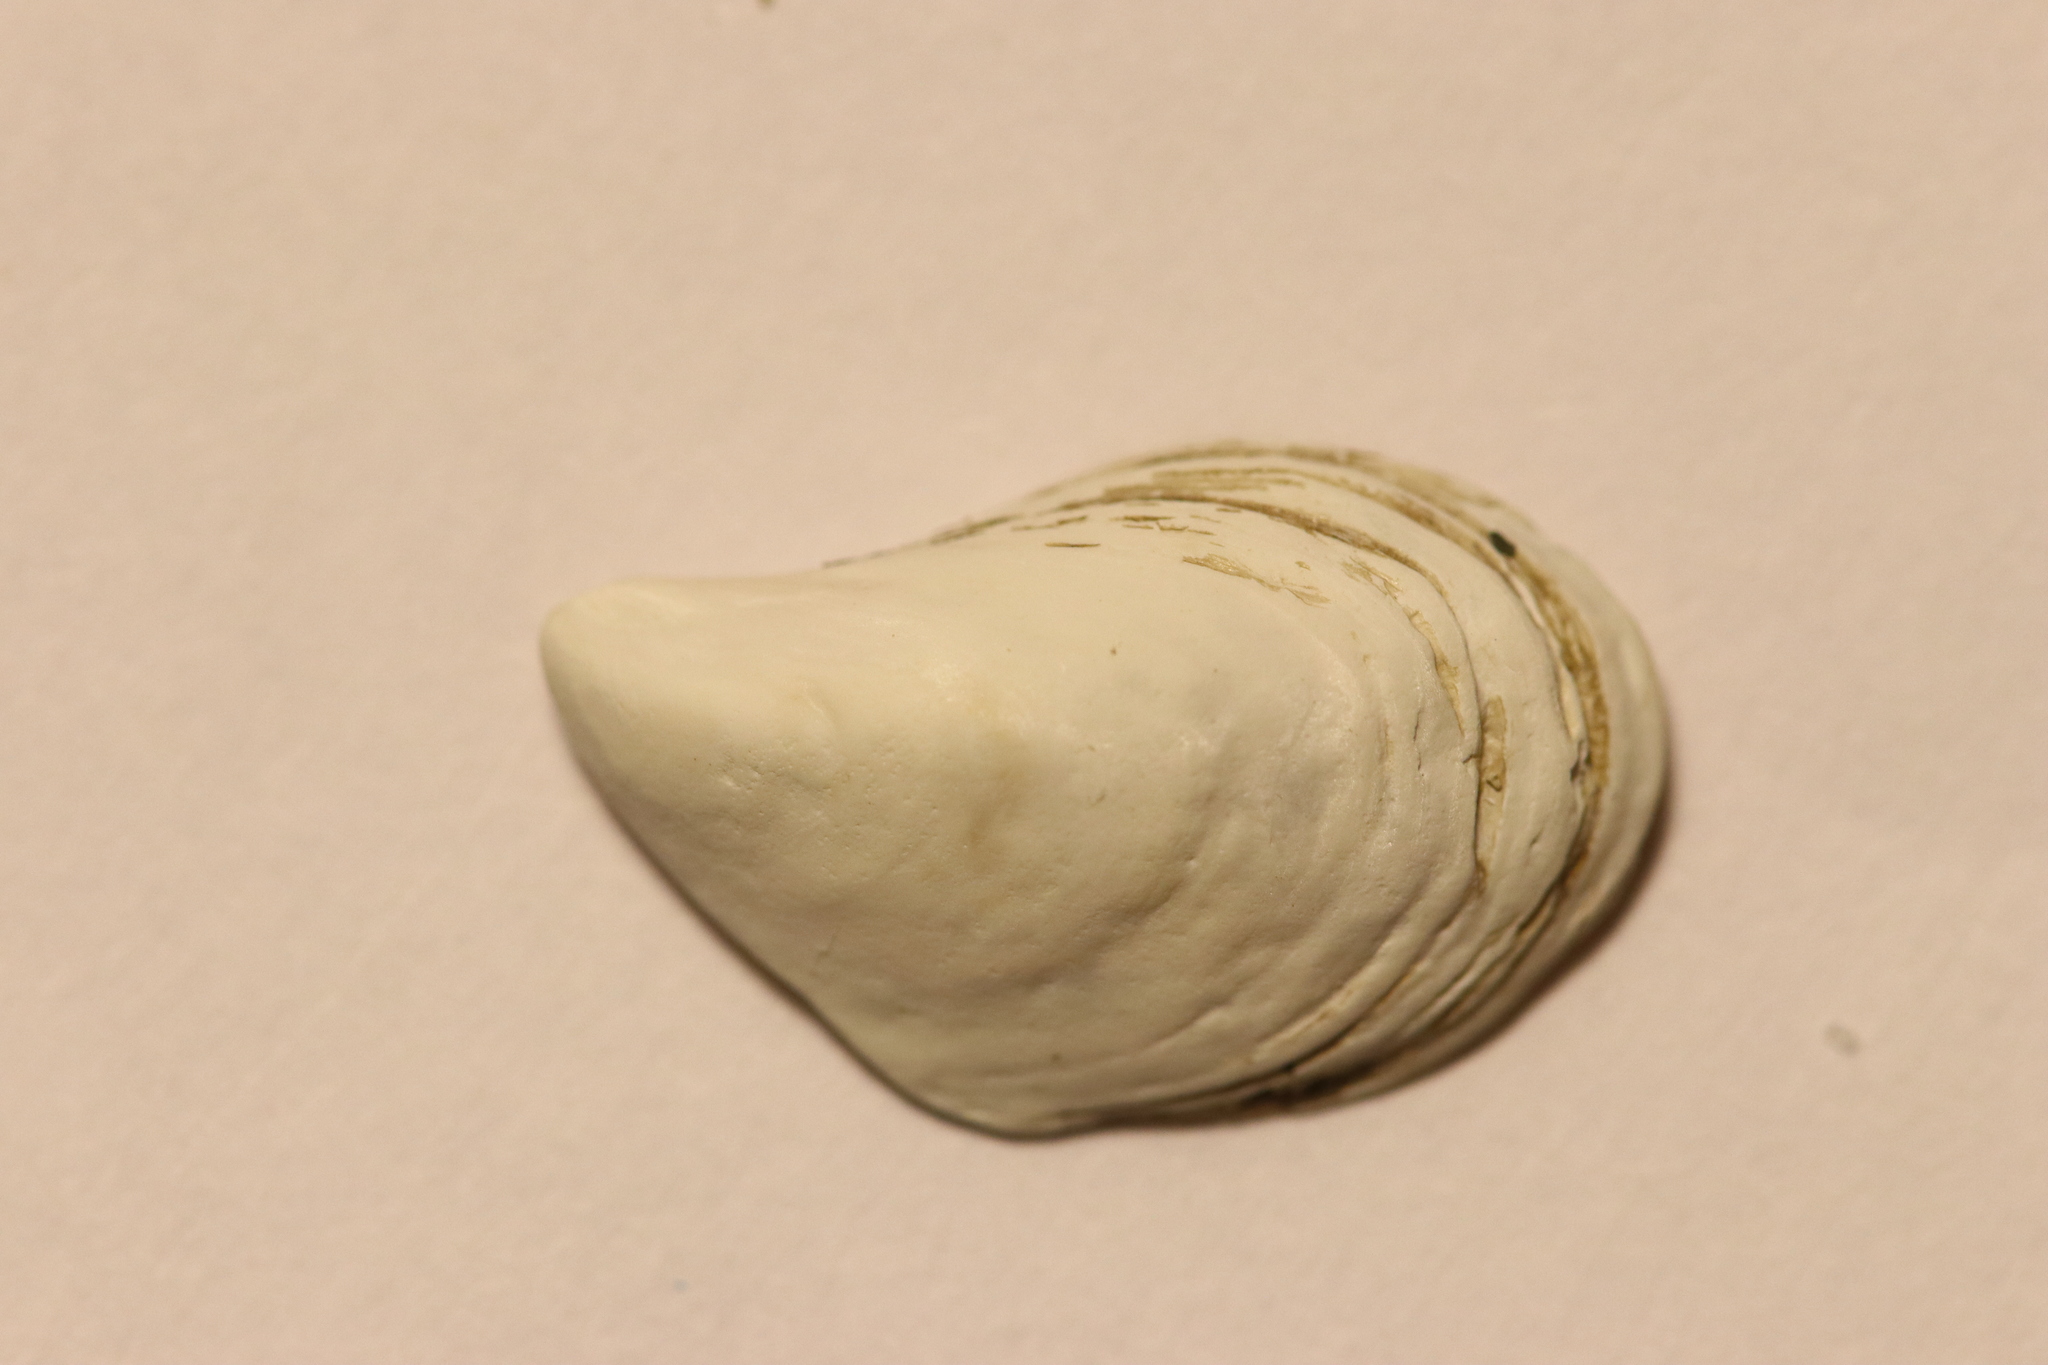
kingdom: Animalia
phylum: Mollusca
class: Bivalvia
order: Myida
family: Dreissenidae
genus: Dreissena
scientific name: Dreissena bugensis
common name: Quagga mussel
